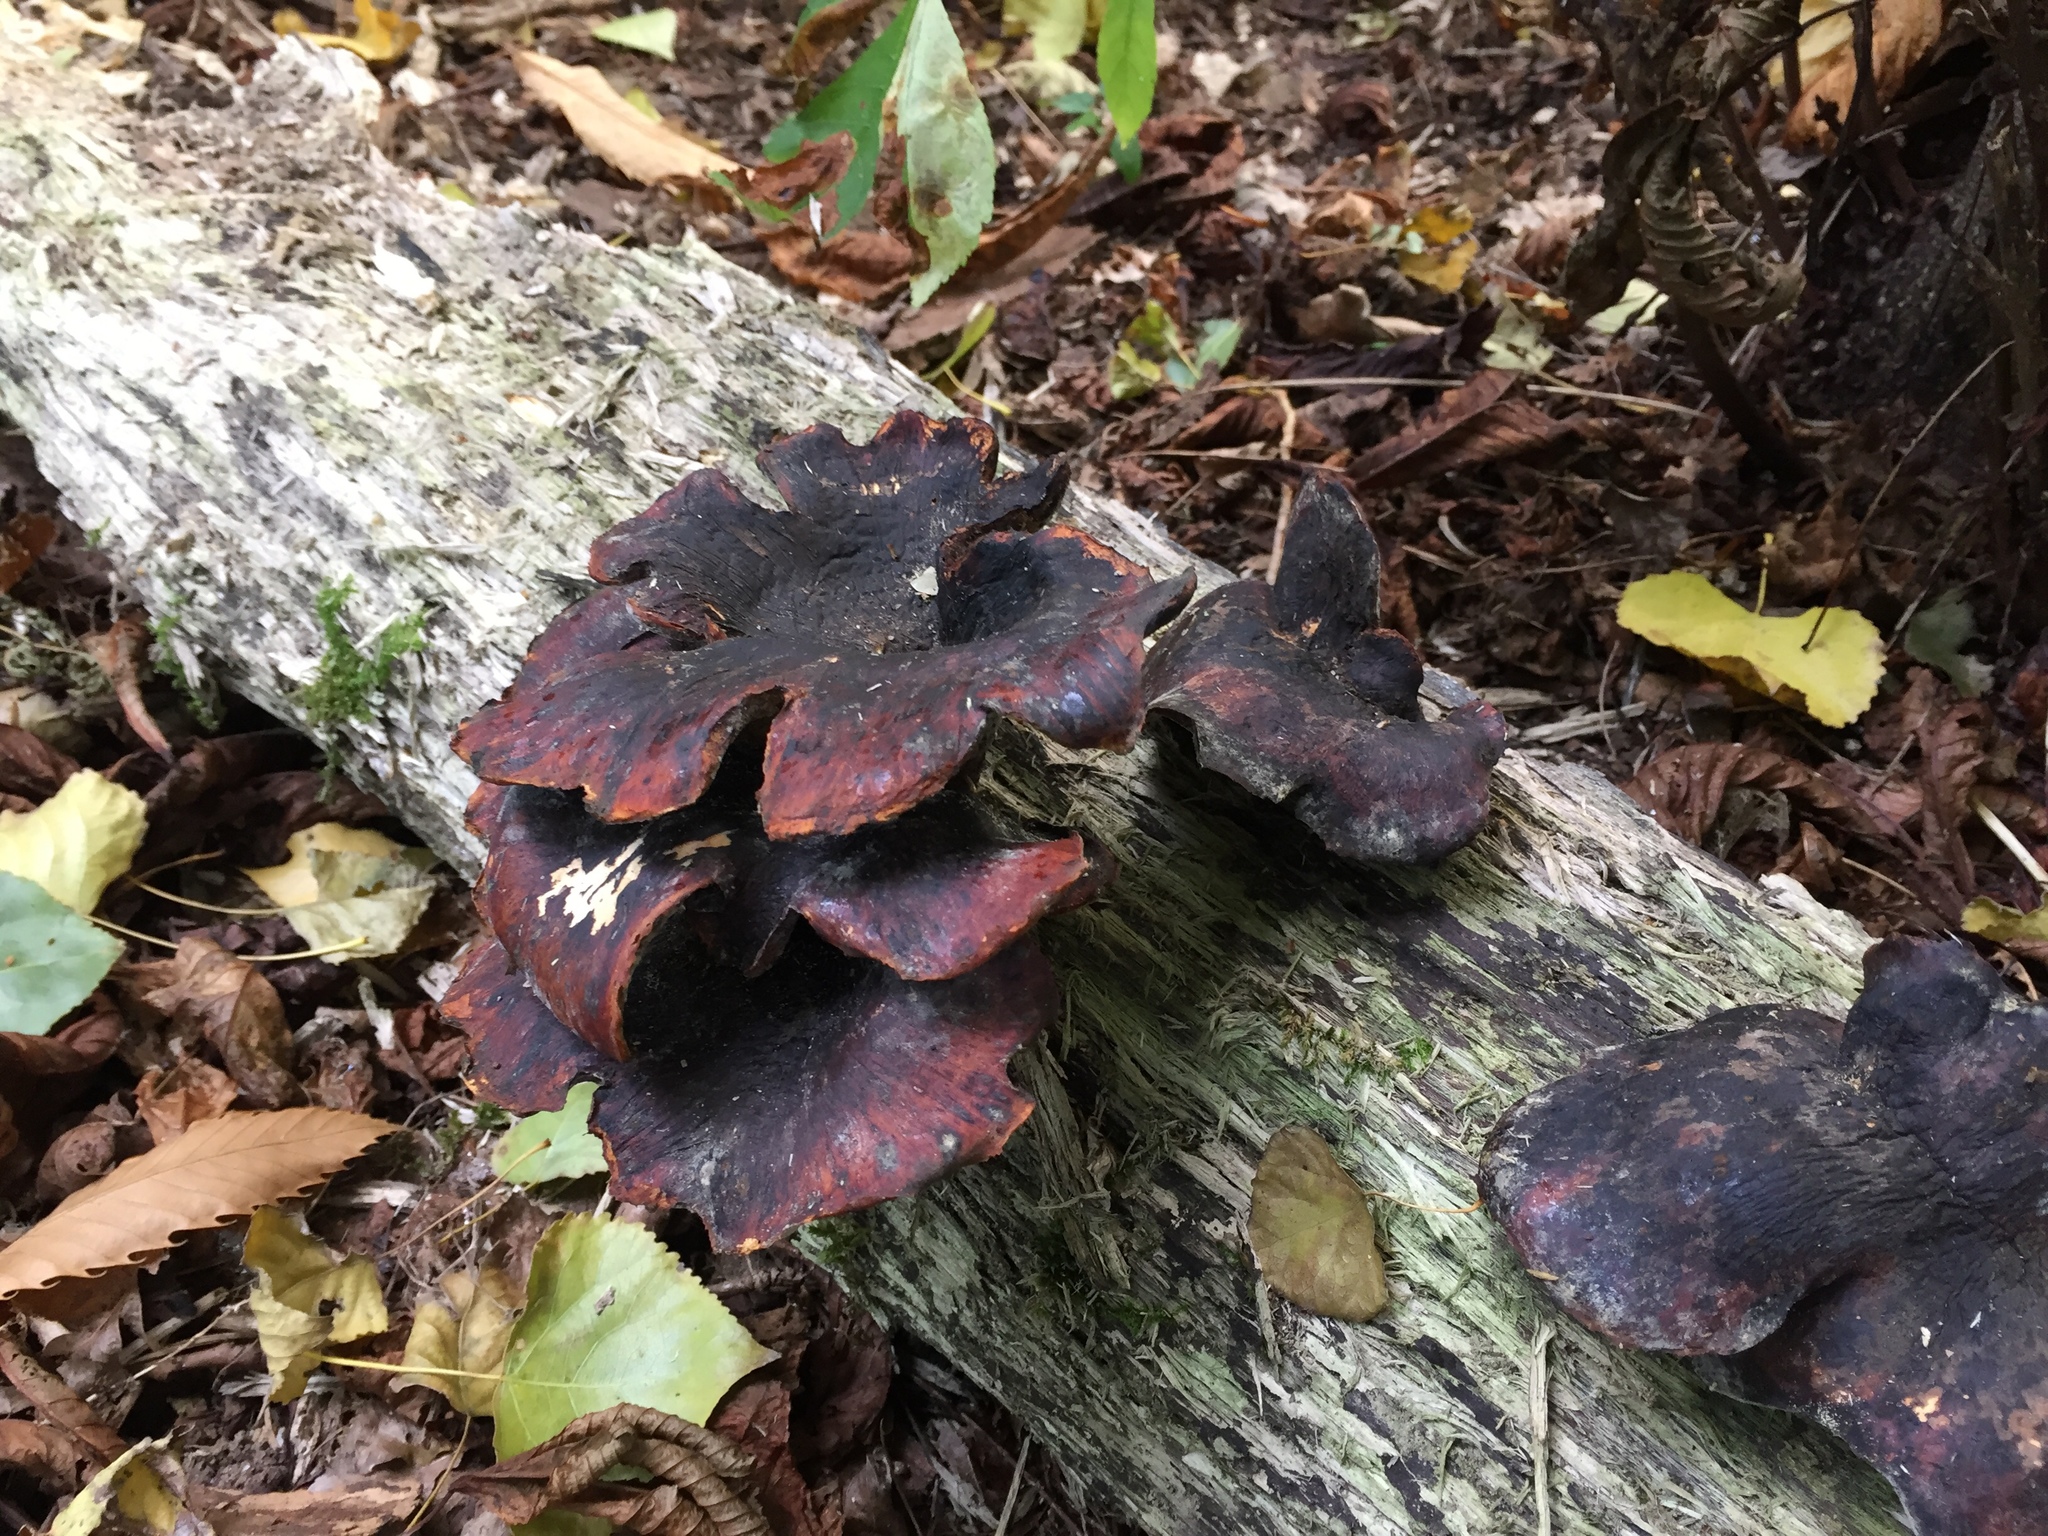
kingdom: Fungi
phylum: Basidiomycota
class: Agaricomycetes
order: Polyporales
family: Polyporaceae
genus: Picipes
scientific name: Picipes badius
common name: Bay polypore
